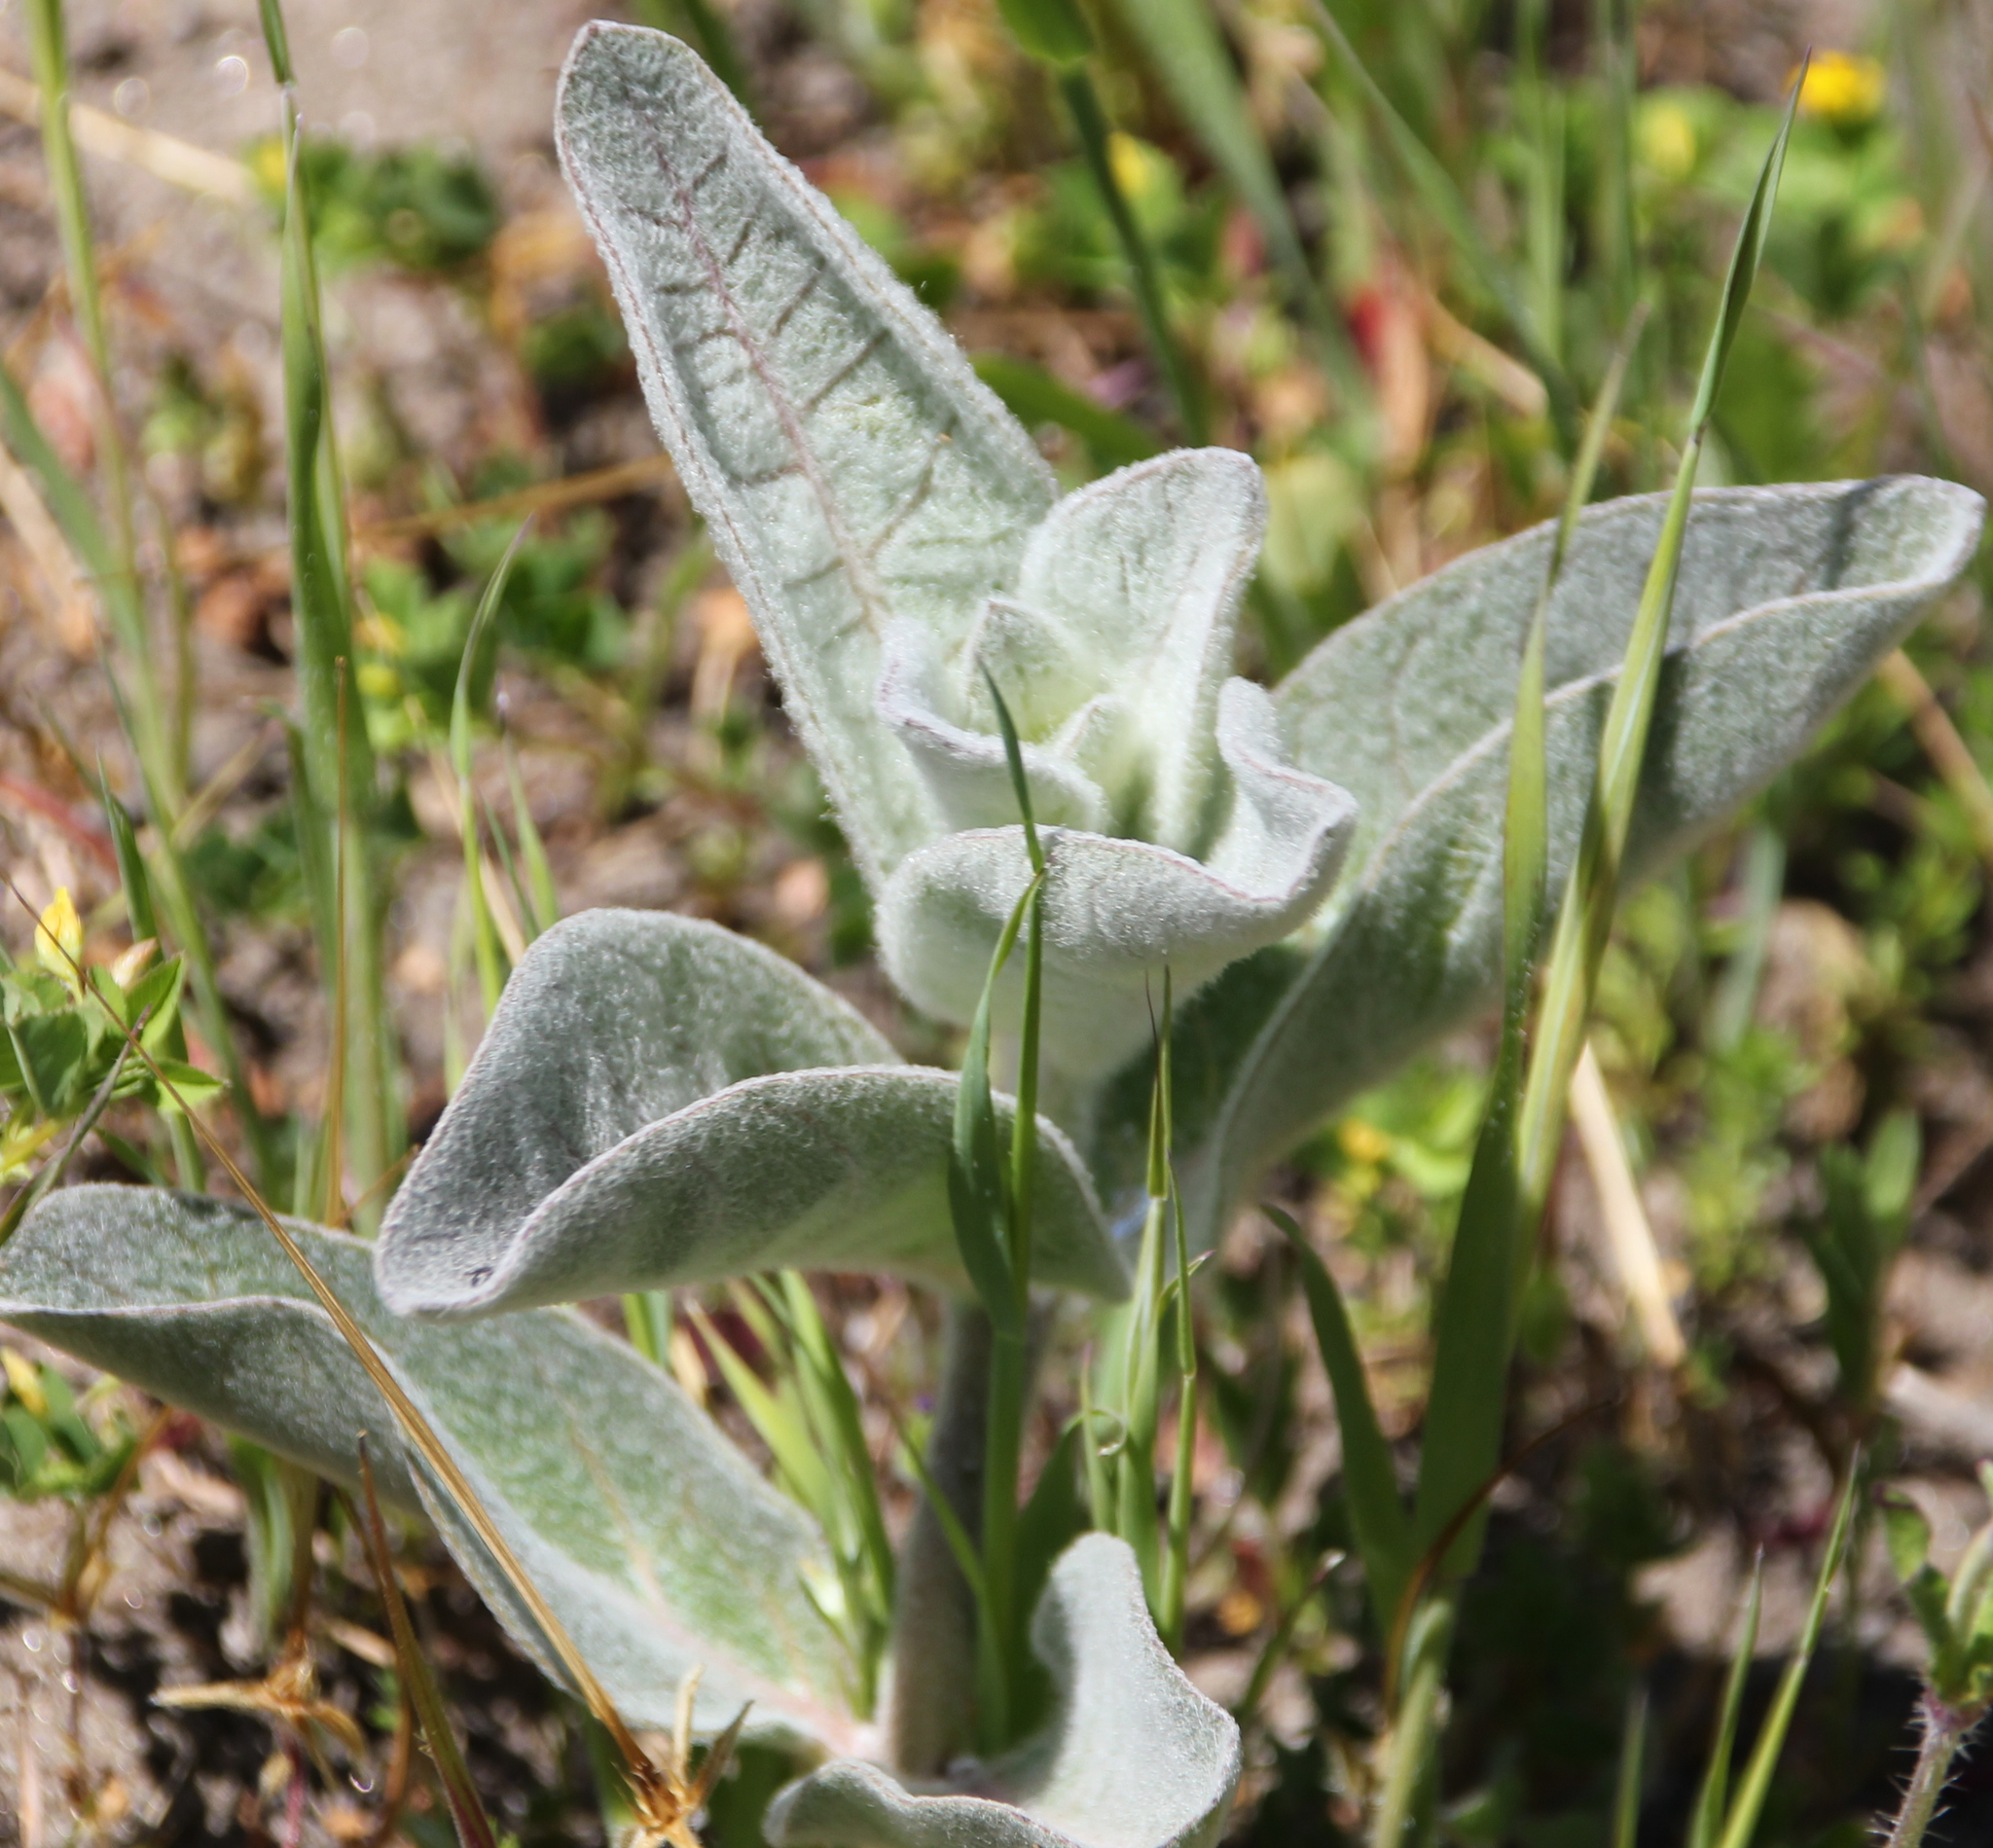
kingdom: Plantae
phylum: Tracheophyta
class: Magnoliopsida
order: Gentianales
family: Apocynaceae
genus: Asclepias
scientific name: Asclepias eriocarpa
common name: Indian milkweed
